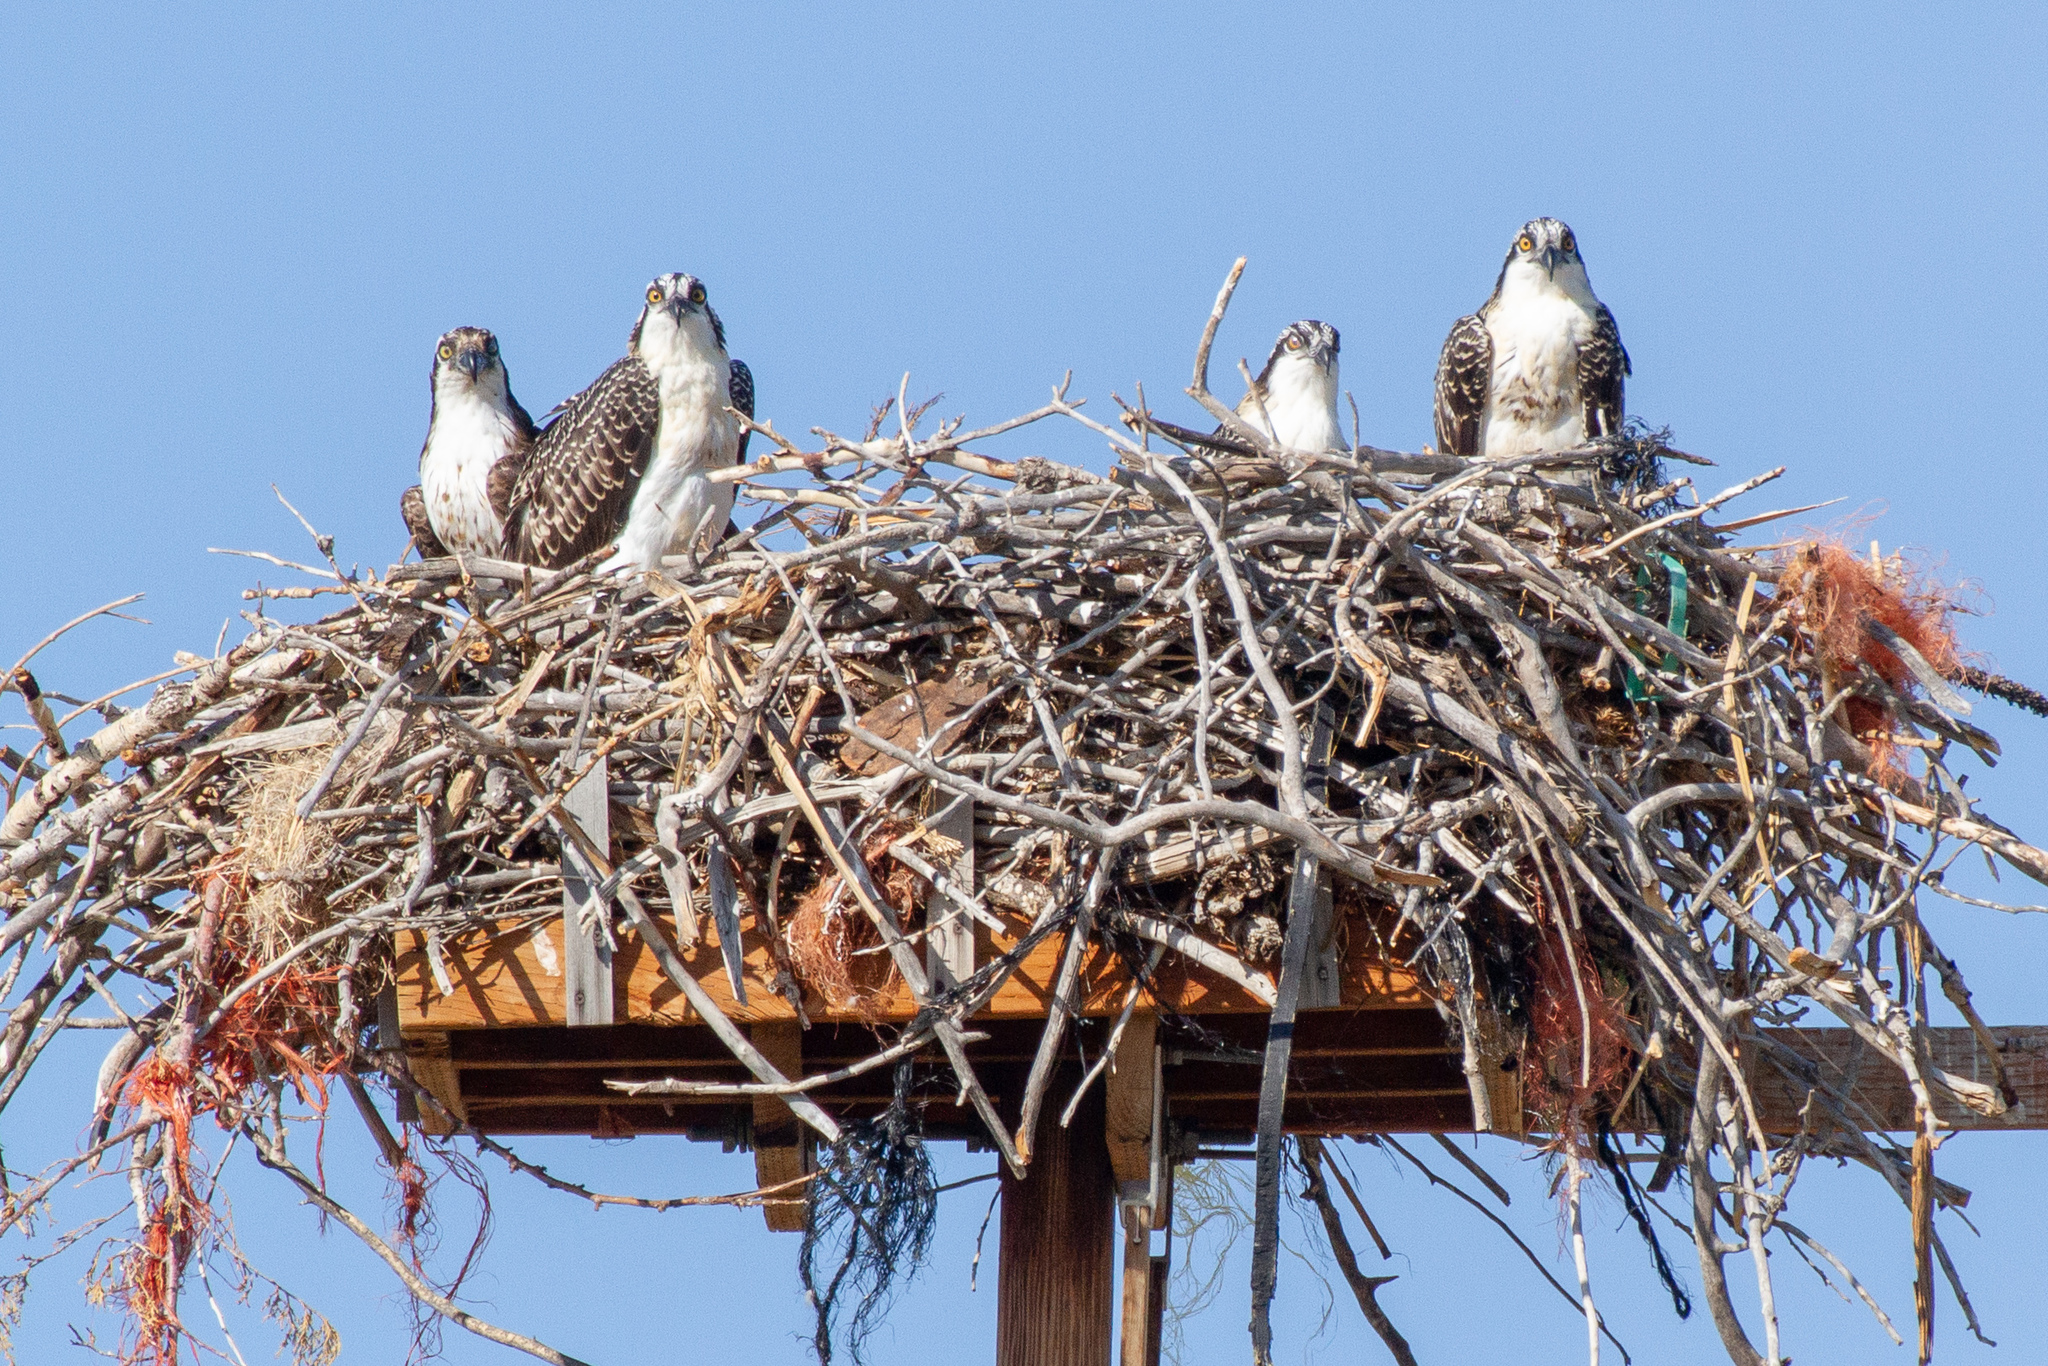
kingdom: Animalia
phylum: Chordata
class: Aves
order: Accipitriformes
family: Pandionidae
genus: Pandion
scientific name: Pandion haliaetus
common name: Osprey
